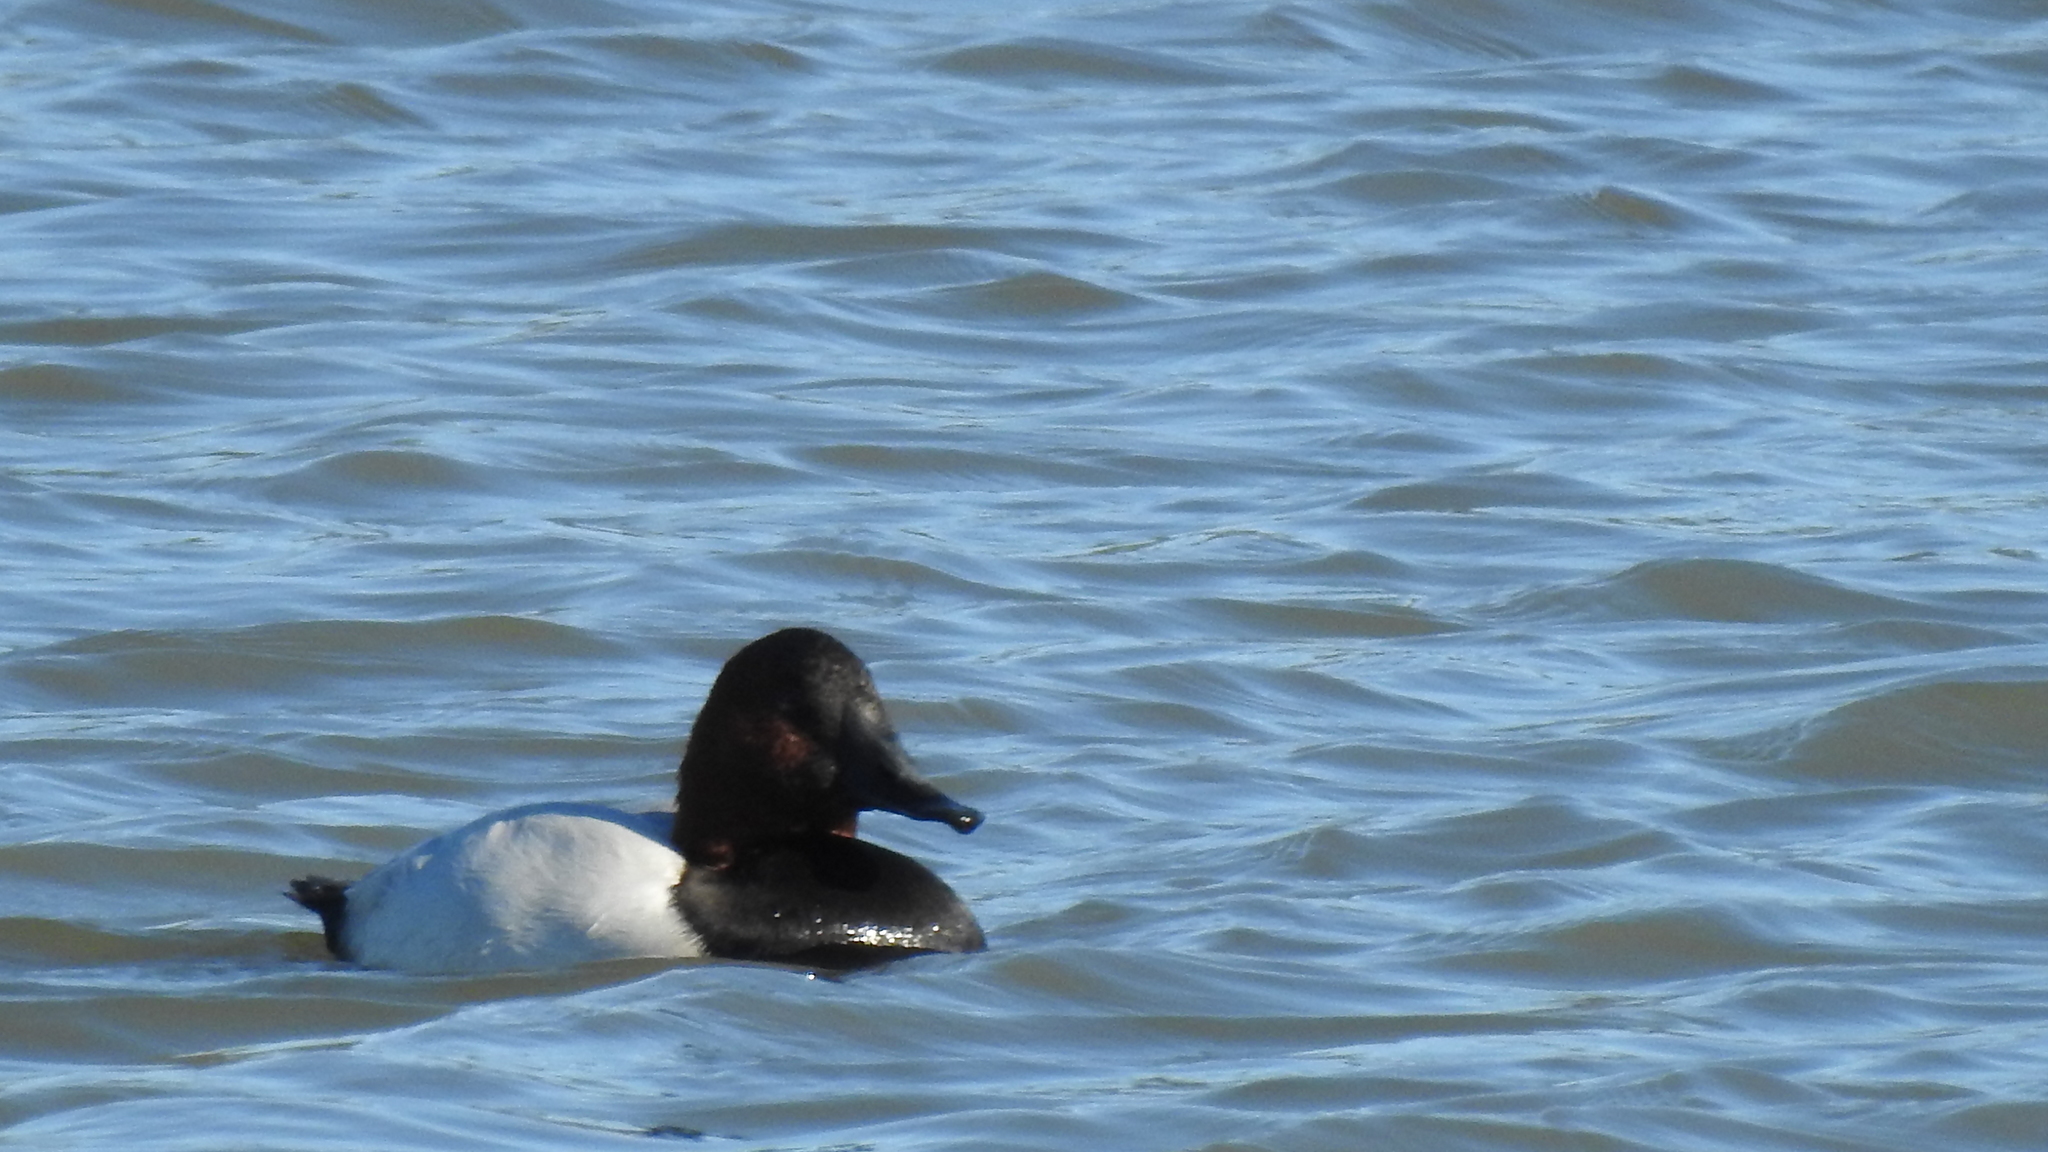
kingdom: Animalia
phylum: Chordata
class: Aves
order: Anseriformes
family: Anatidae
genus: Aythya
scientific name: Aythya valisineria
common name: Canvasback
